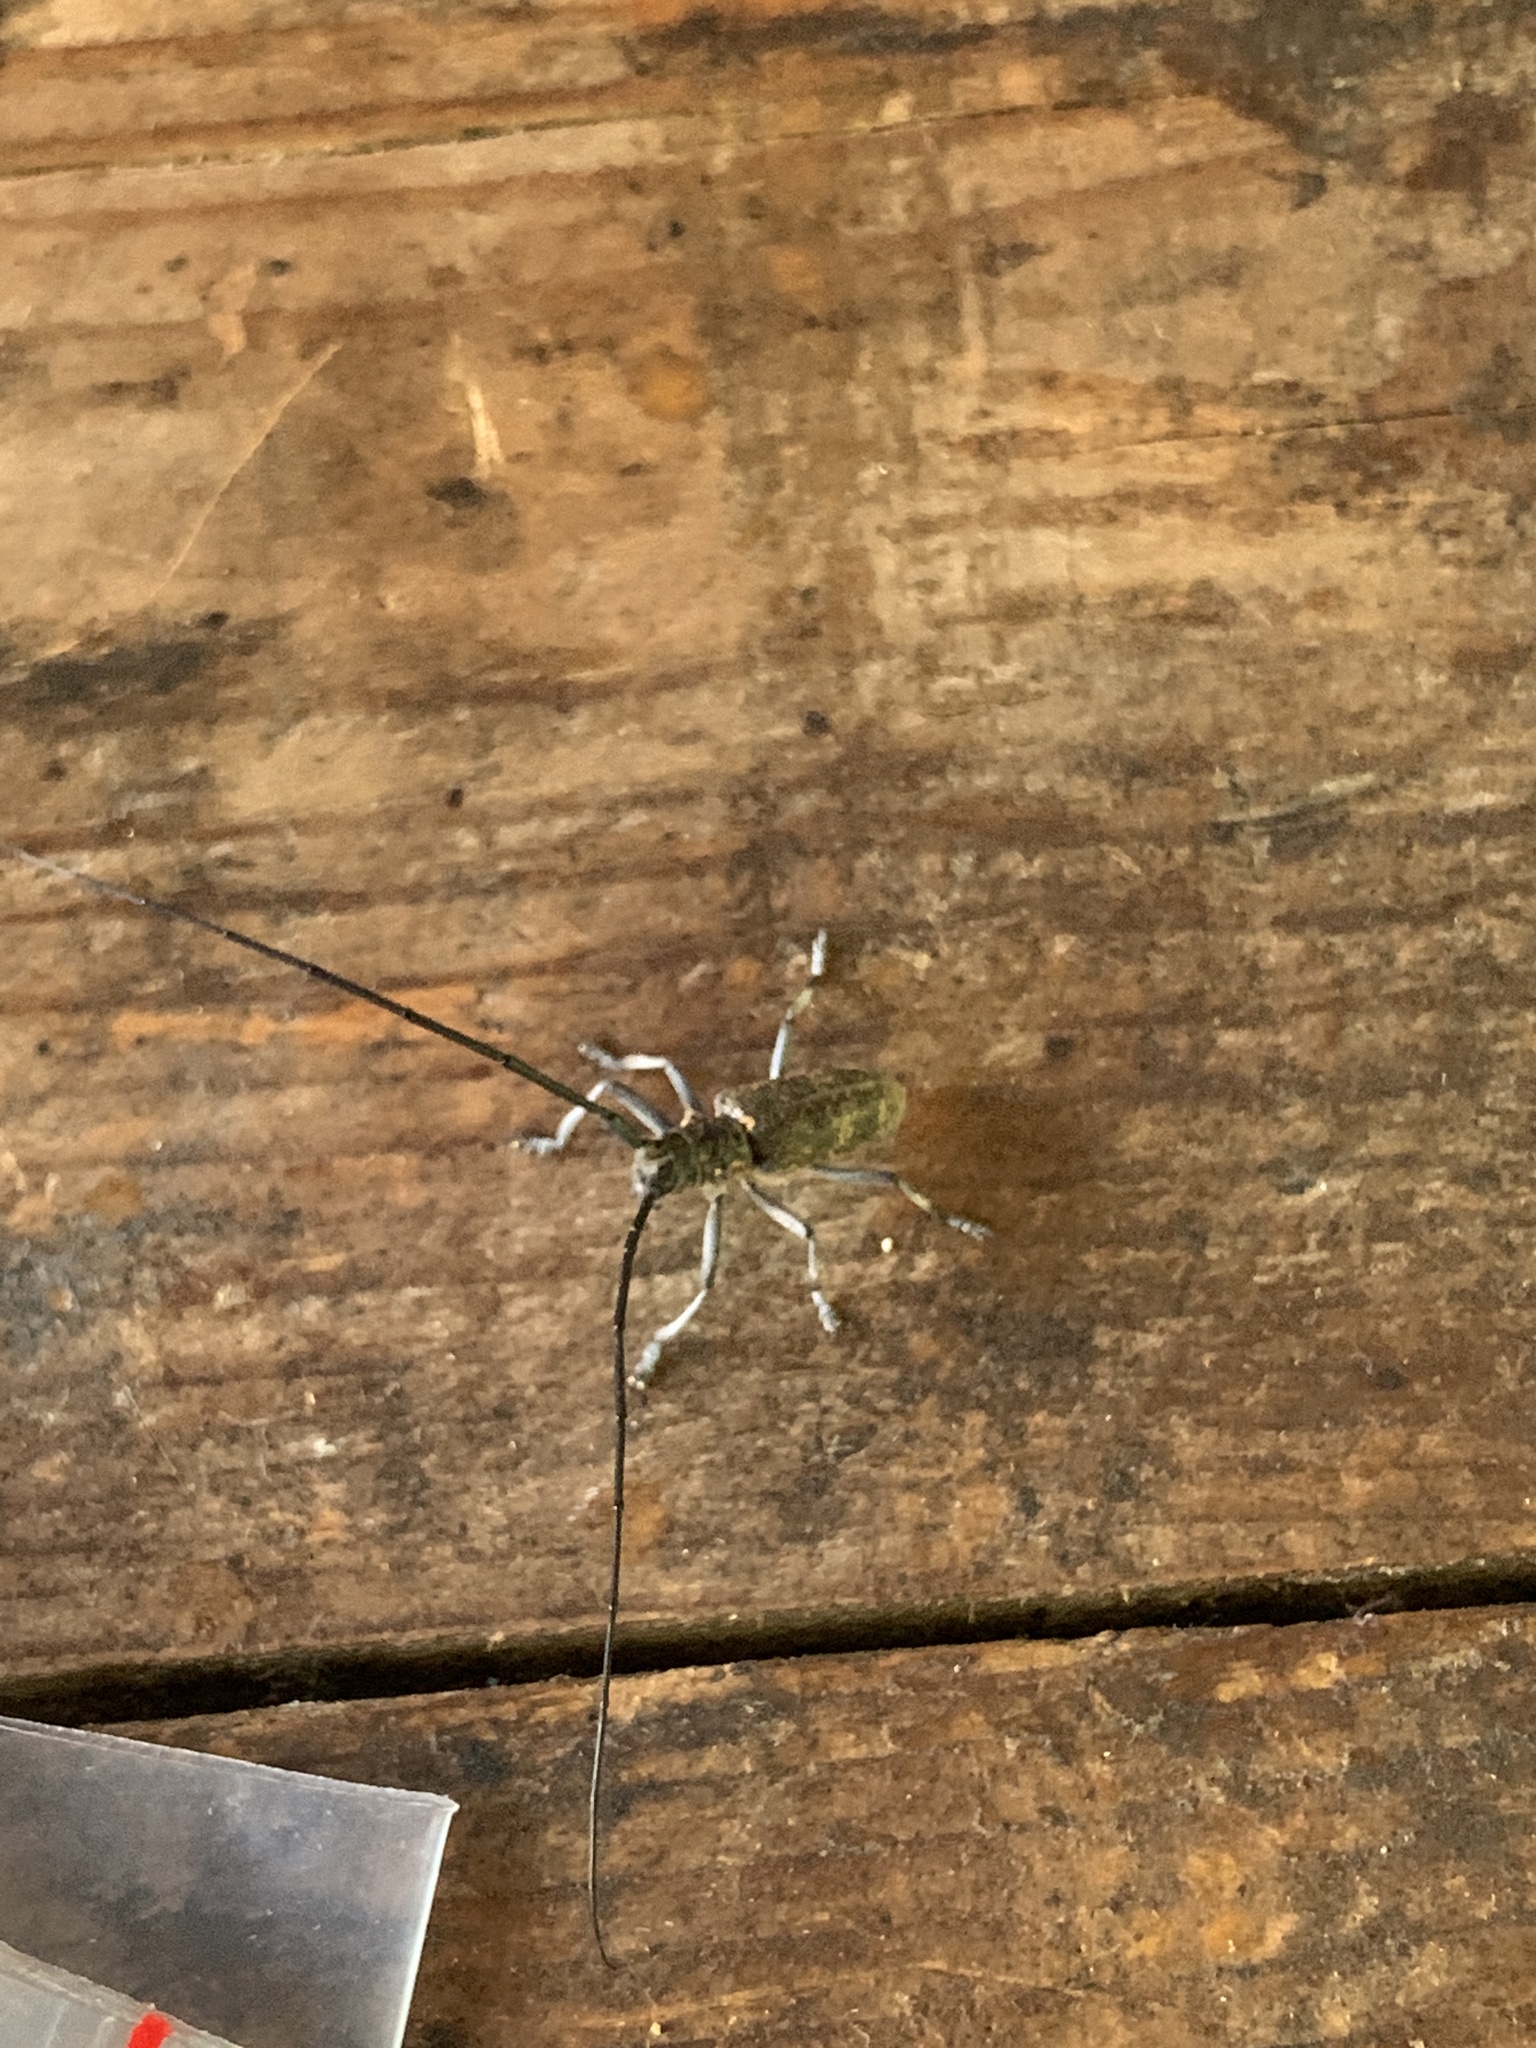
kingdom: Animalia
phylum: Arthropoda
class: Insecta
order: Coleoptera
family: Cerambycidae
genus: Monochamus
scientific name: Monochamus galloprovincialis
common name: Pine sawyer
